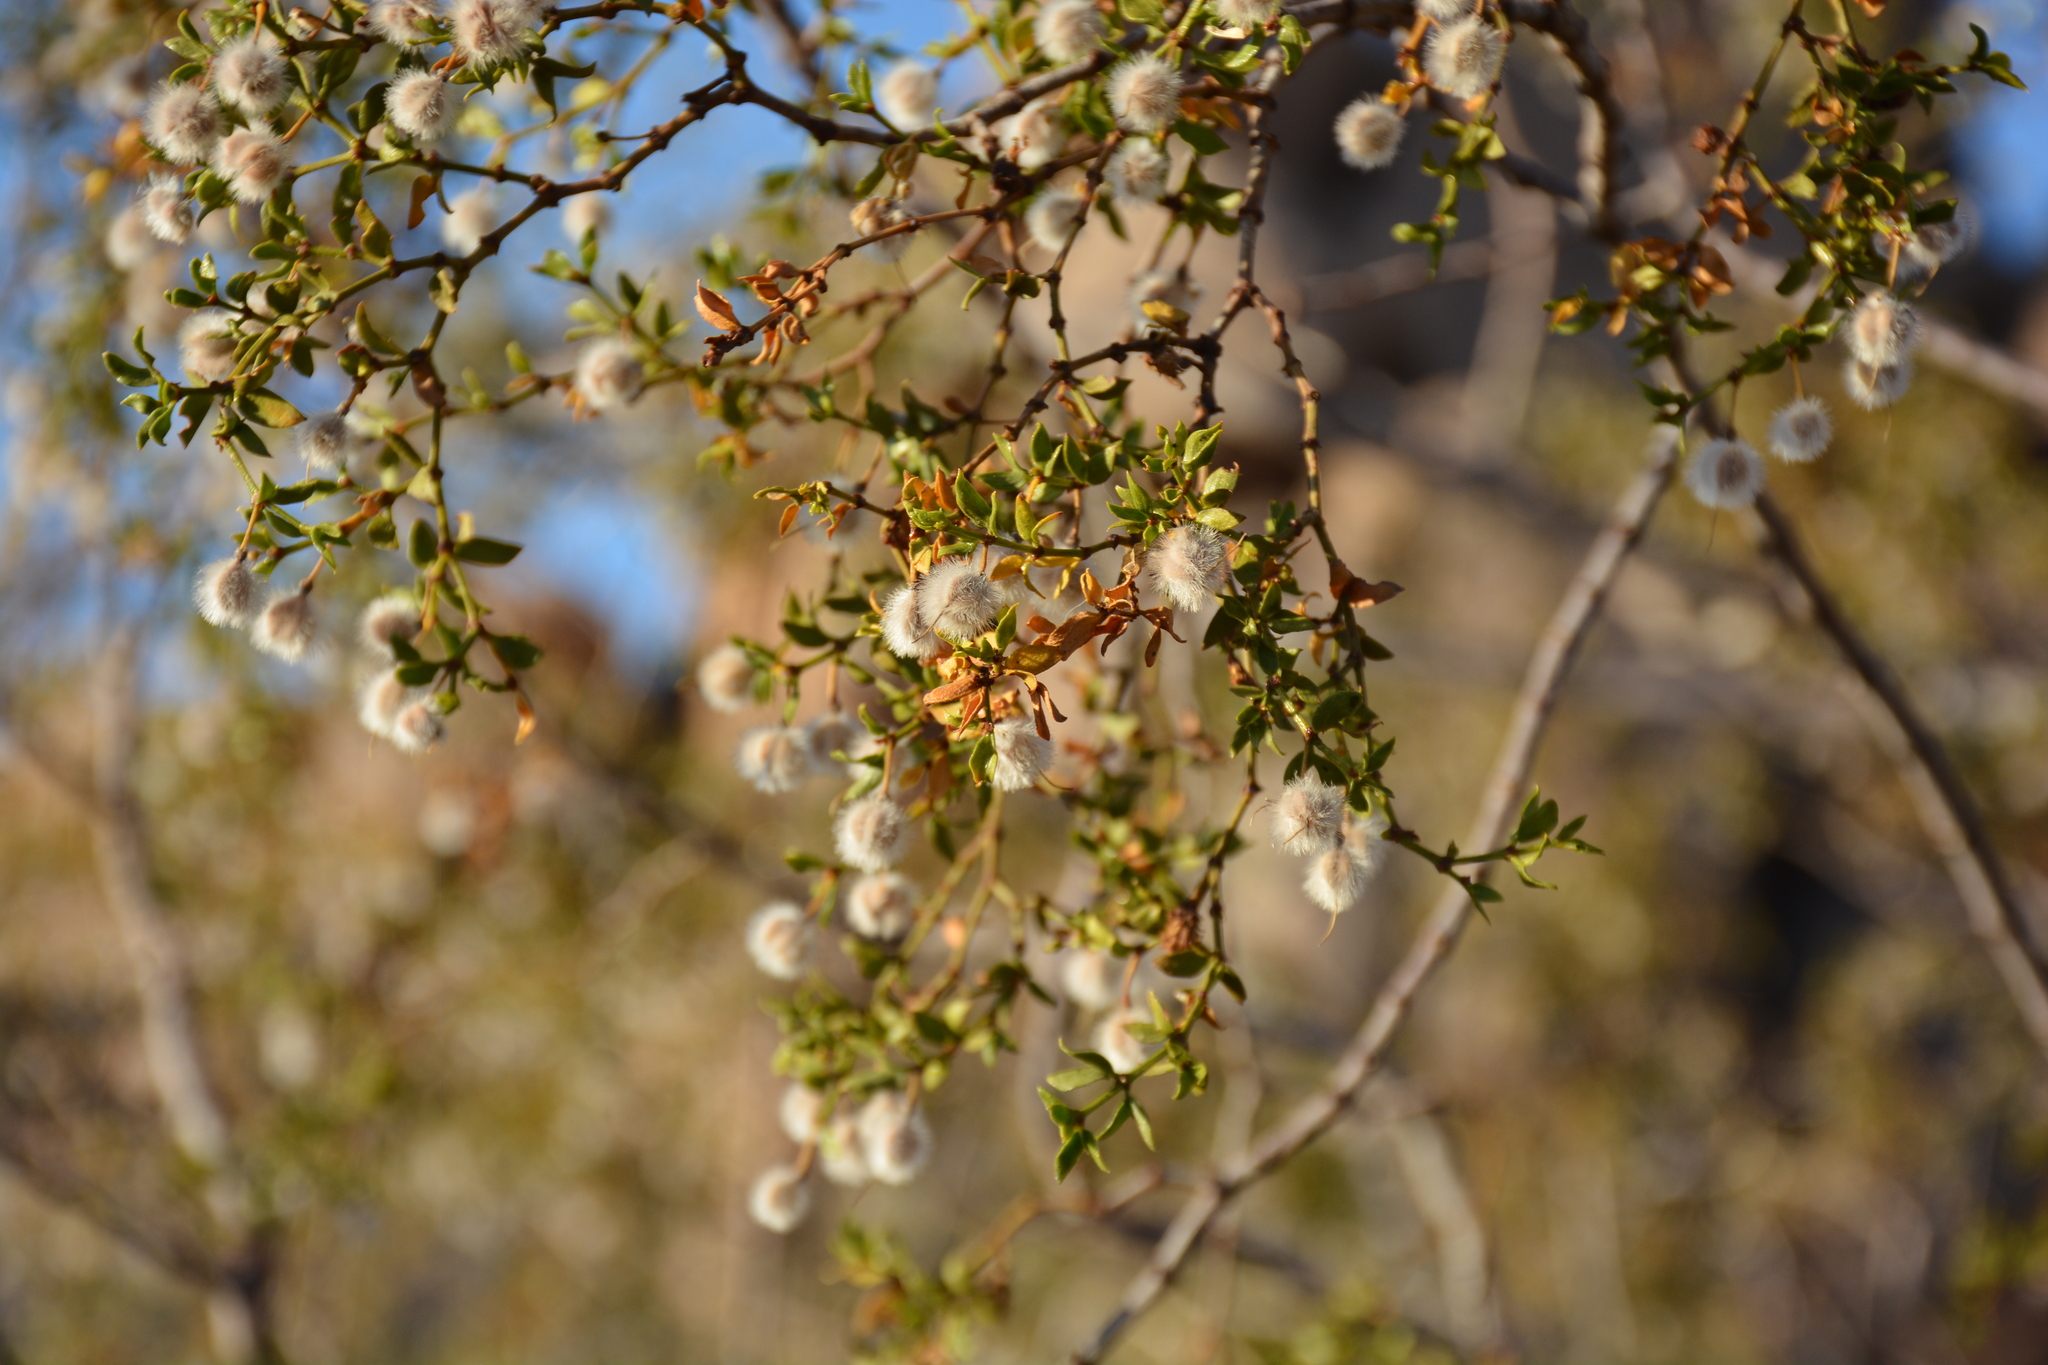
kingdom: Plantae
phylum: Tracheophyta
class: Magnoliopsida
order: Zygophyllales
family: Zygophyllaceae
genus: Larrea
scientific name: Larrea tridentata
